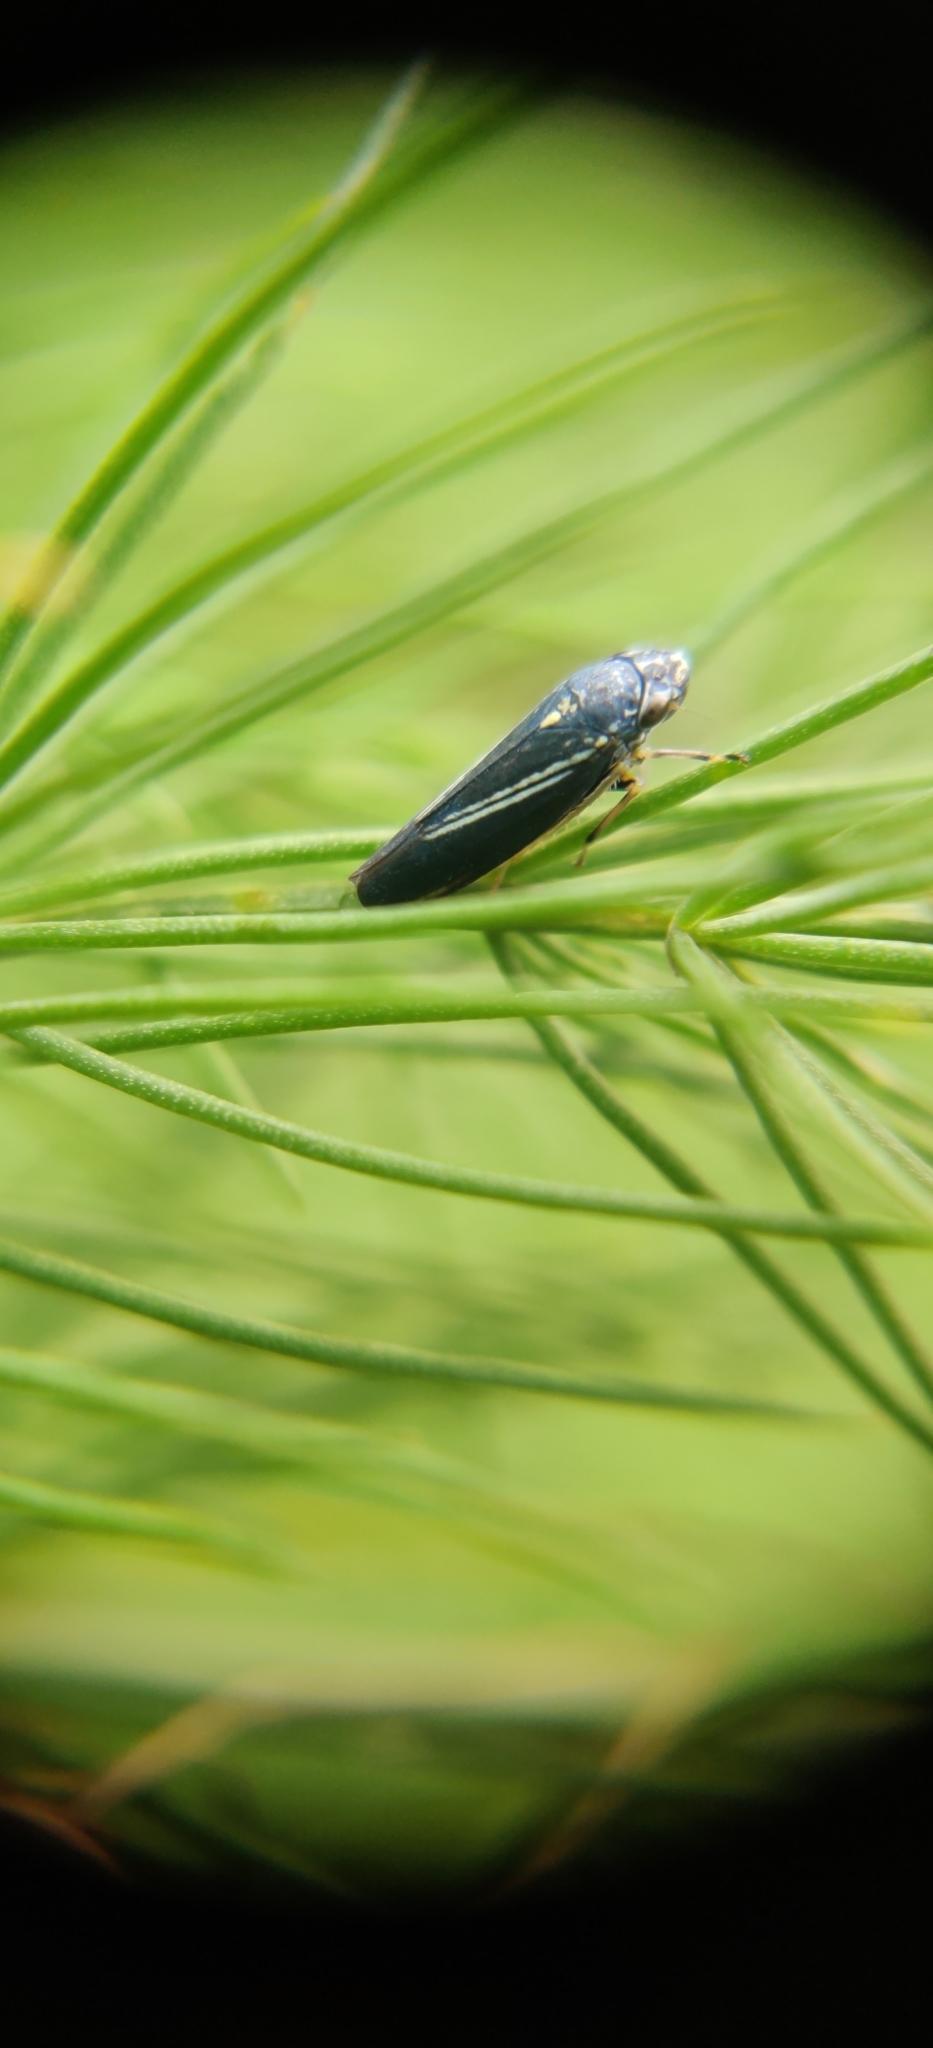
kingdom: Animalia
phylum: Arthropoda
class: Insecta
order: Hemiptera
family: Cicadellidae
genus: Neokolla
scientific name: Neokolla hieroglyphica
